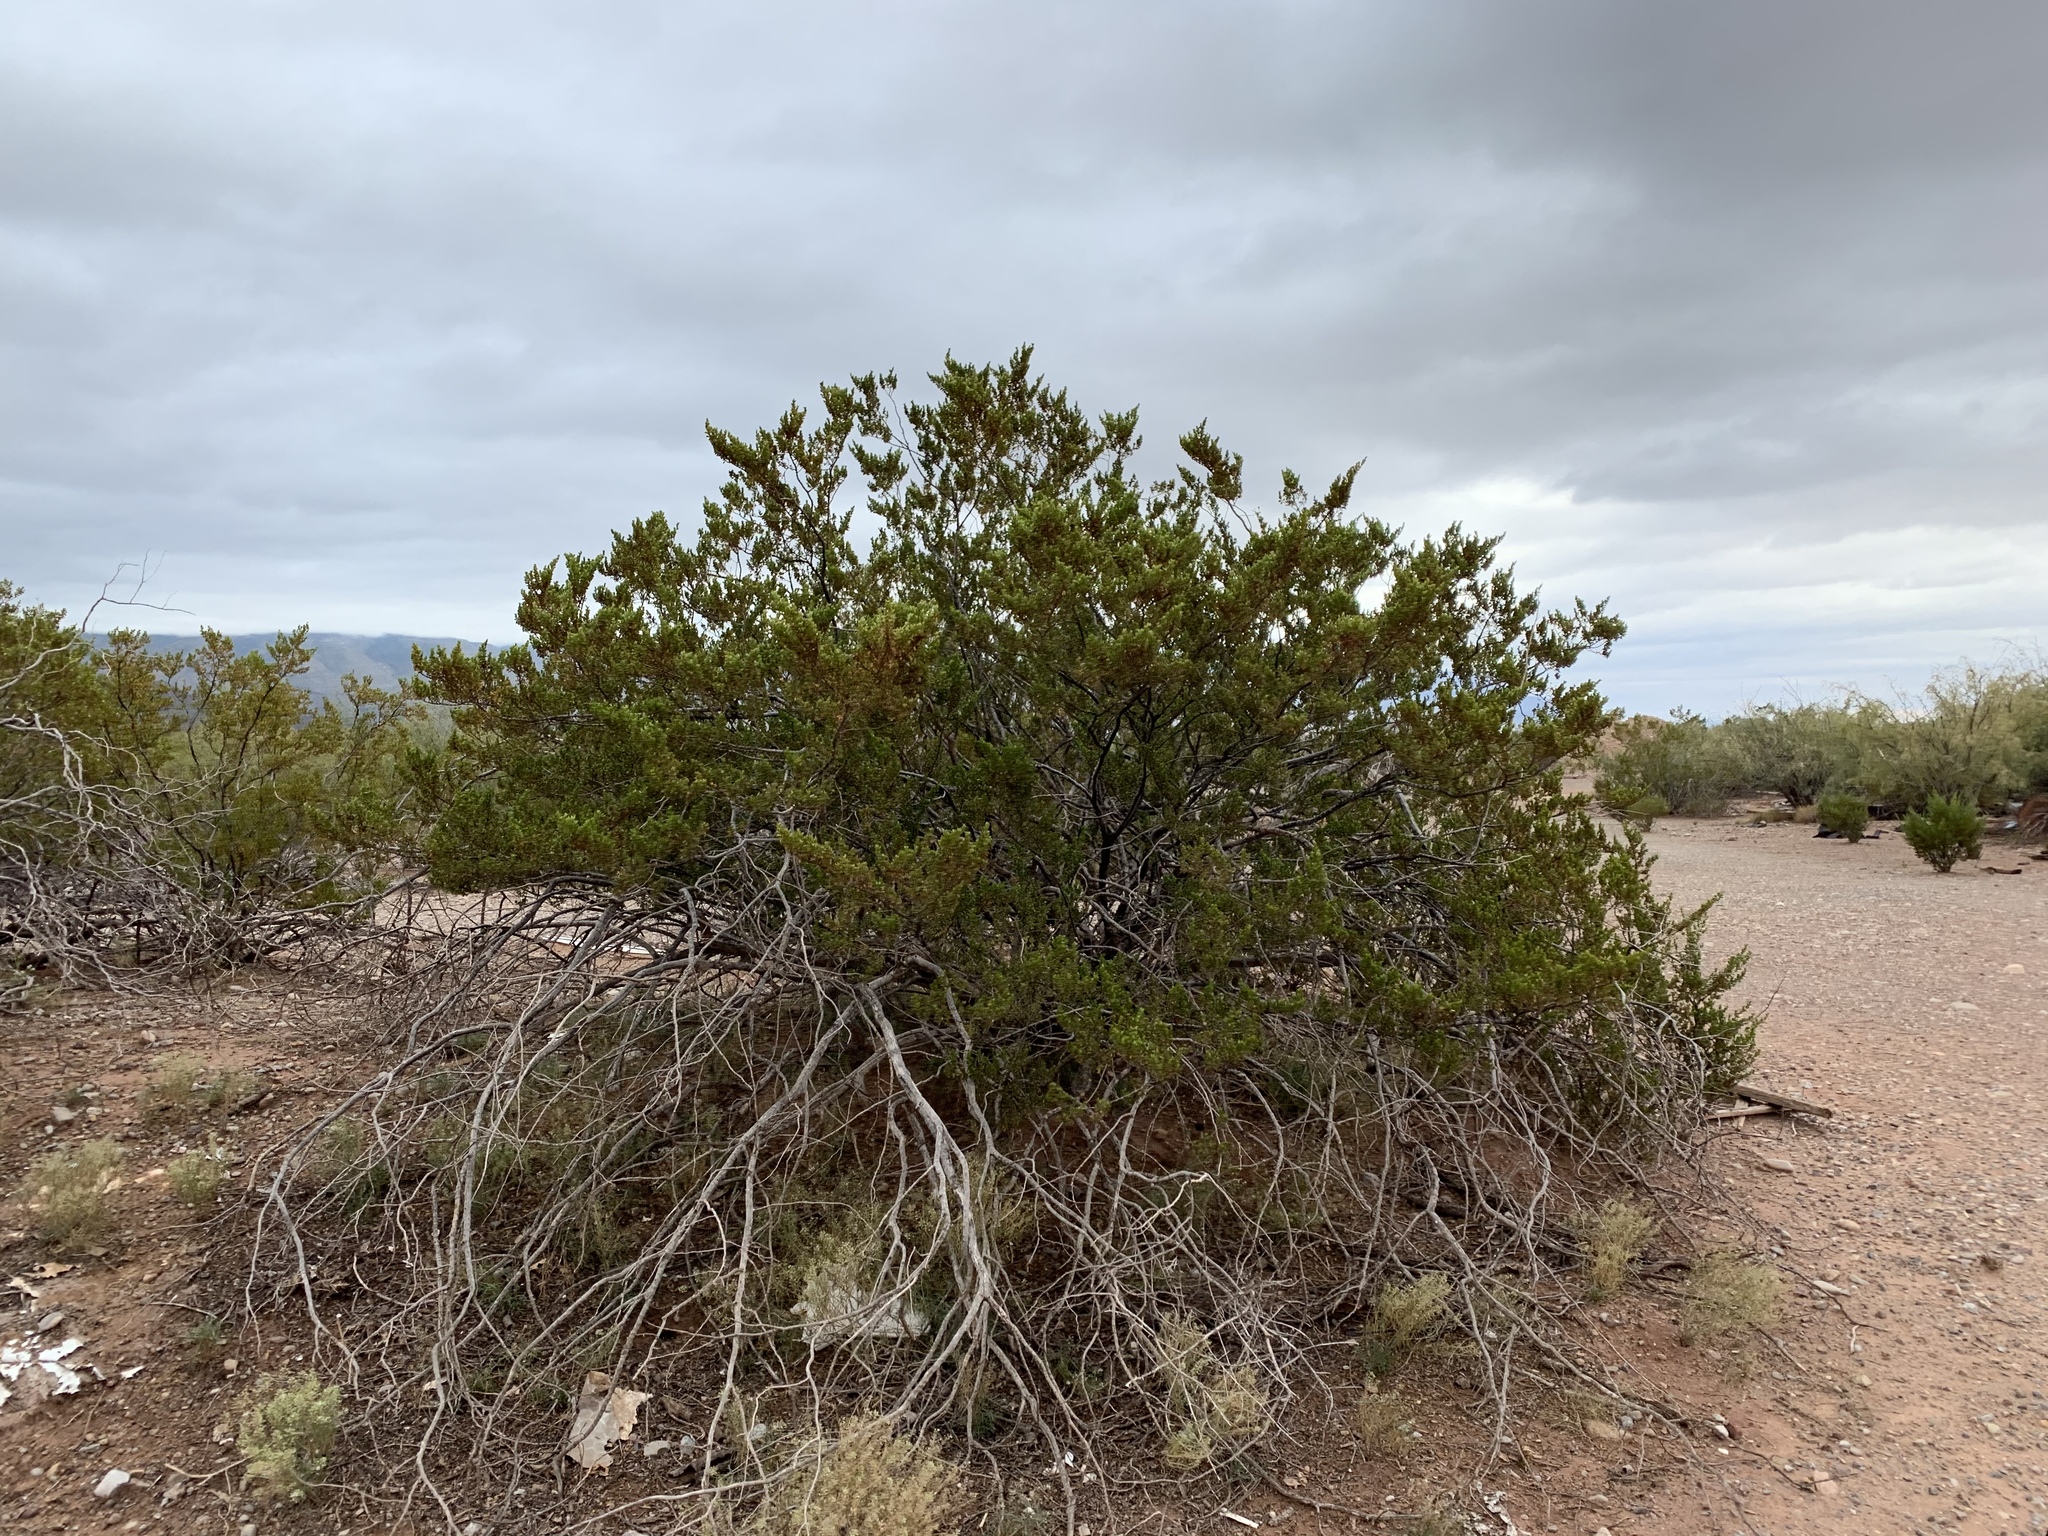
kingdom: Plantae
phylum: Tracheophyta
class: Magnoliopsida
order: Zygophyllales
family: Zygophyllaceae
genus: Larrea
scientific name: Larrea tridentata
